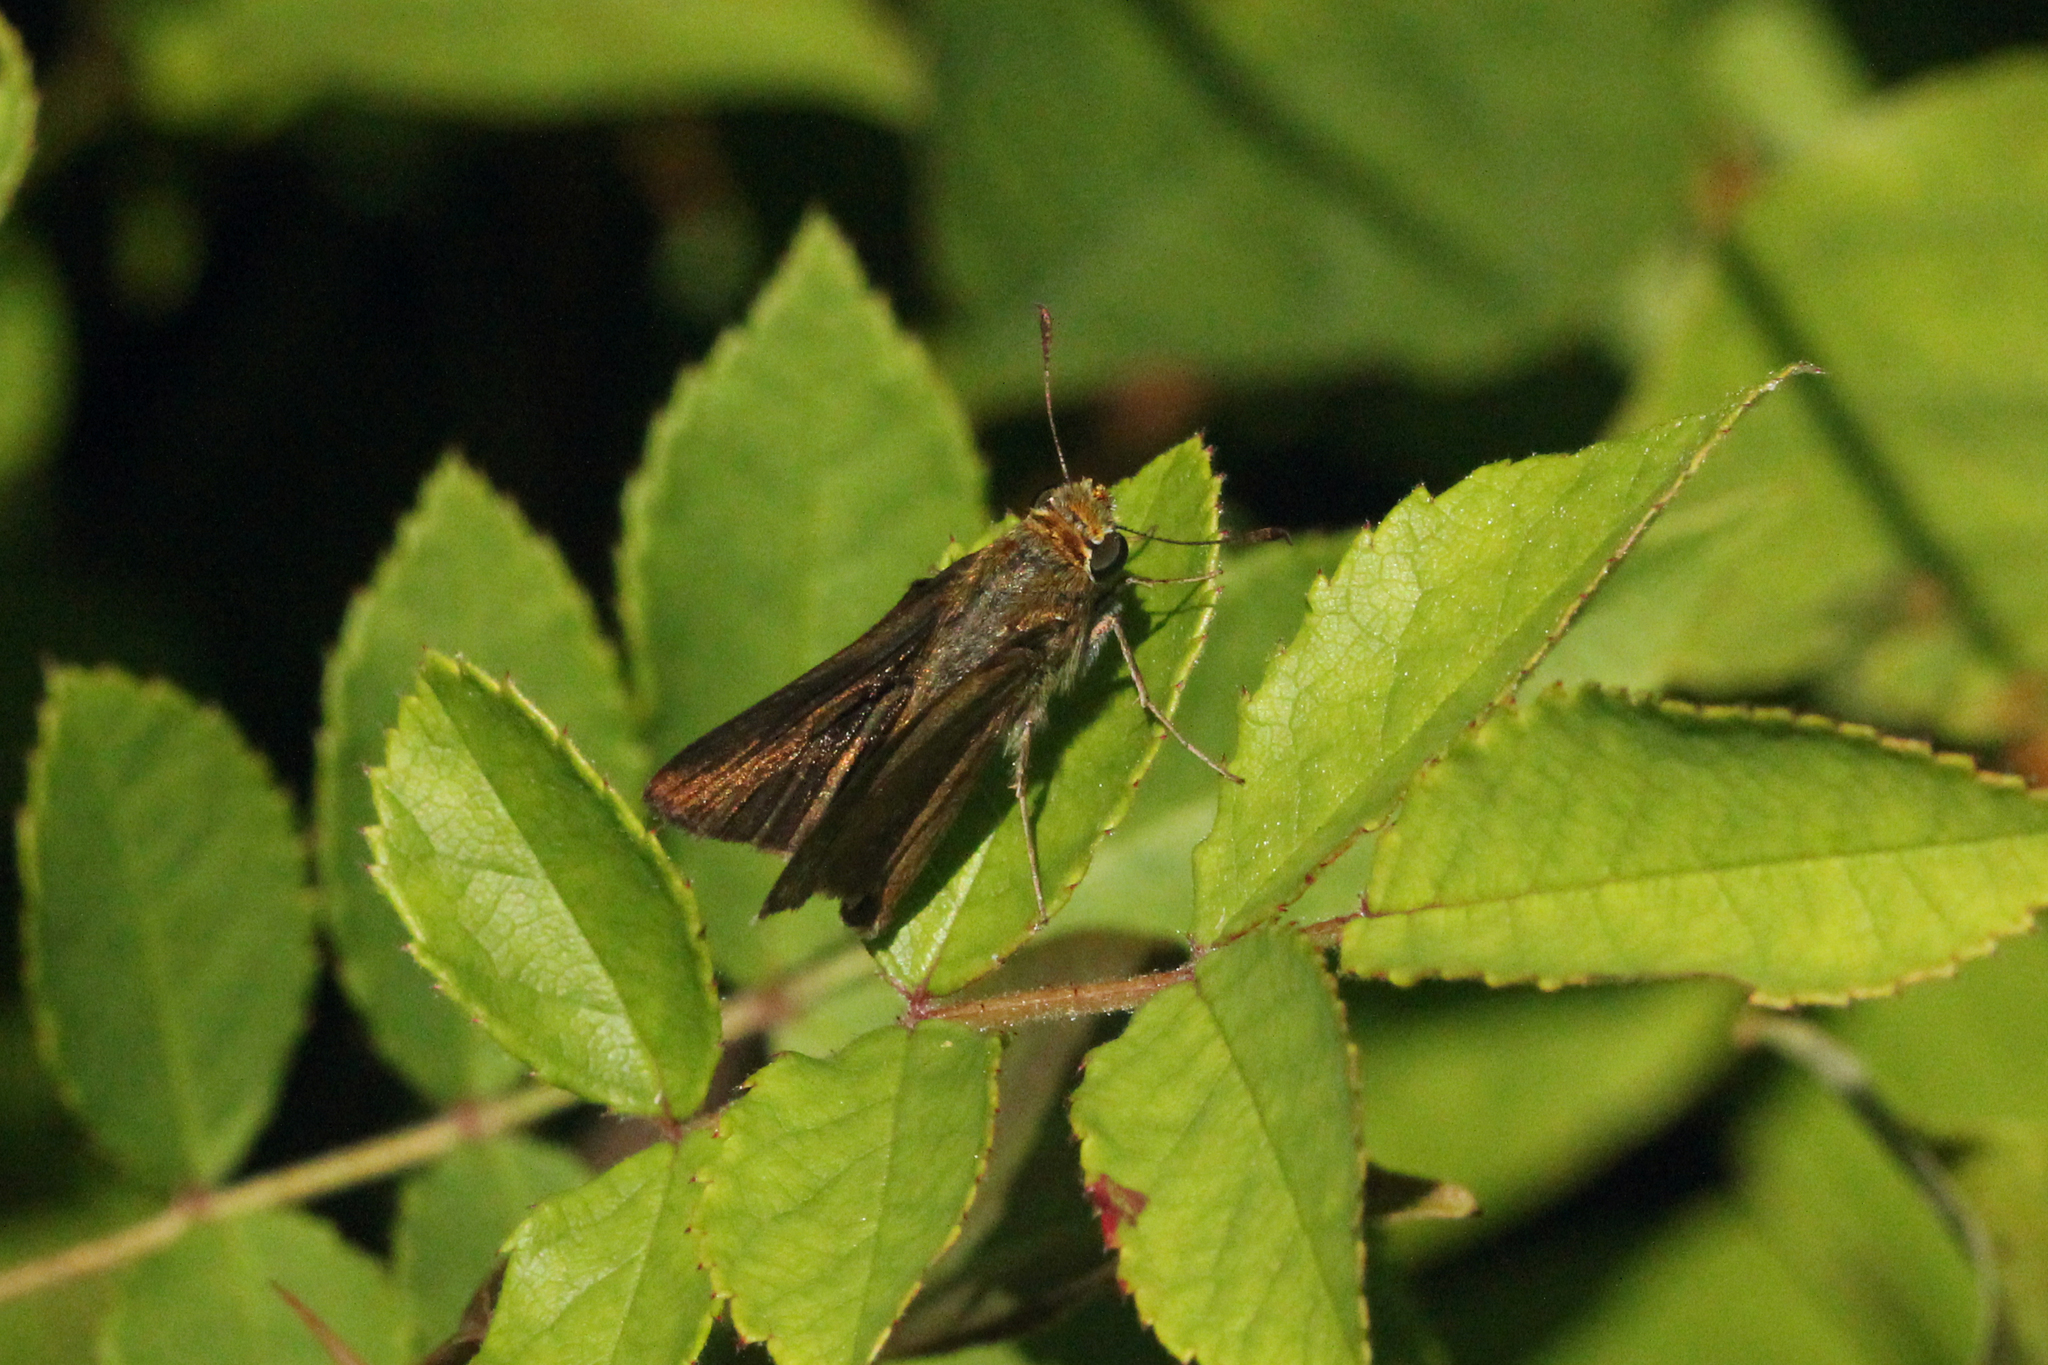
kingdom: Animalia
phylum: Arthropoda
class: Insecta
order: Lepidoptera
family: Hesperiidae
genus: Euphyes
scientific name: Euphyes vestris
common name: Dun skipper
